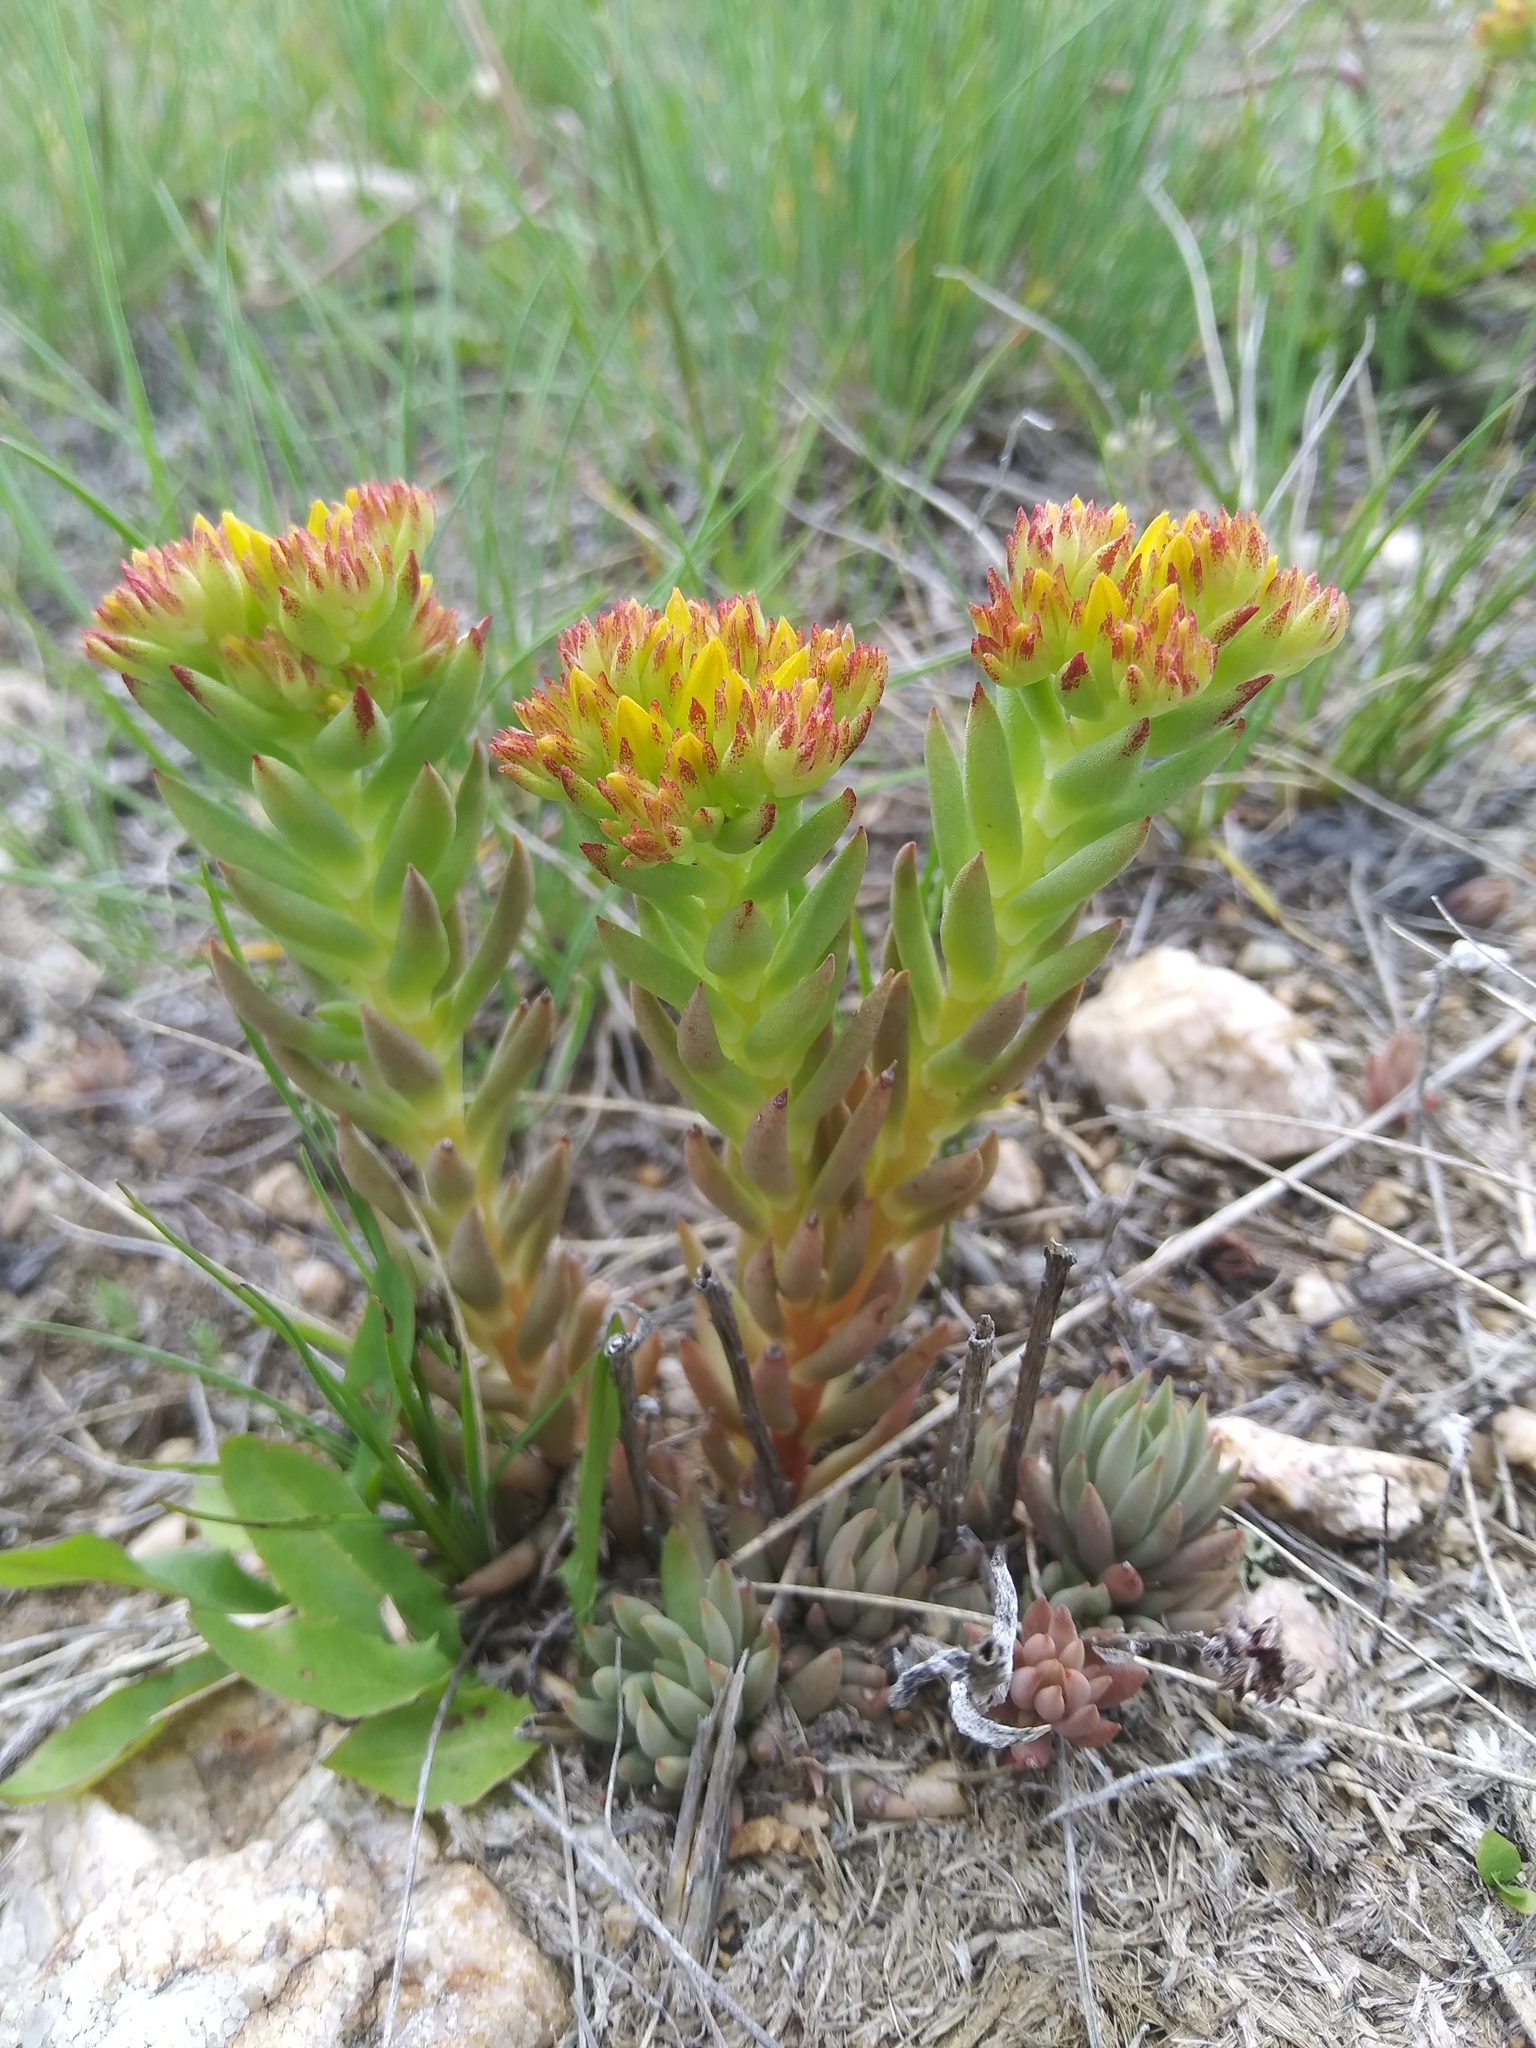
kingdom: Plantae
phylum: Tracheophyta
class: Magnoliopsida
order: Saxifragales
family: Crassulaceae
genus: Sedum
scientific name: Sedum lanceolatum
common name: Common stonecrop
